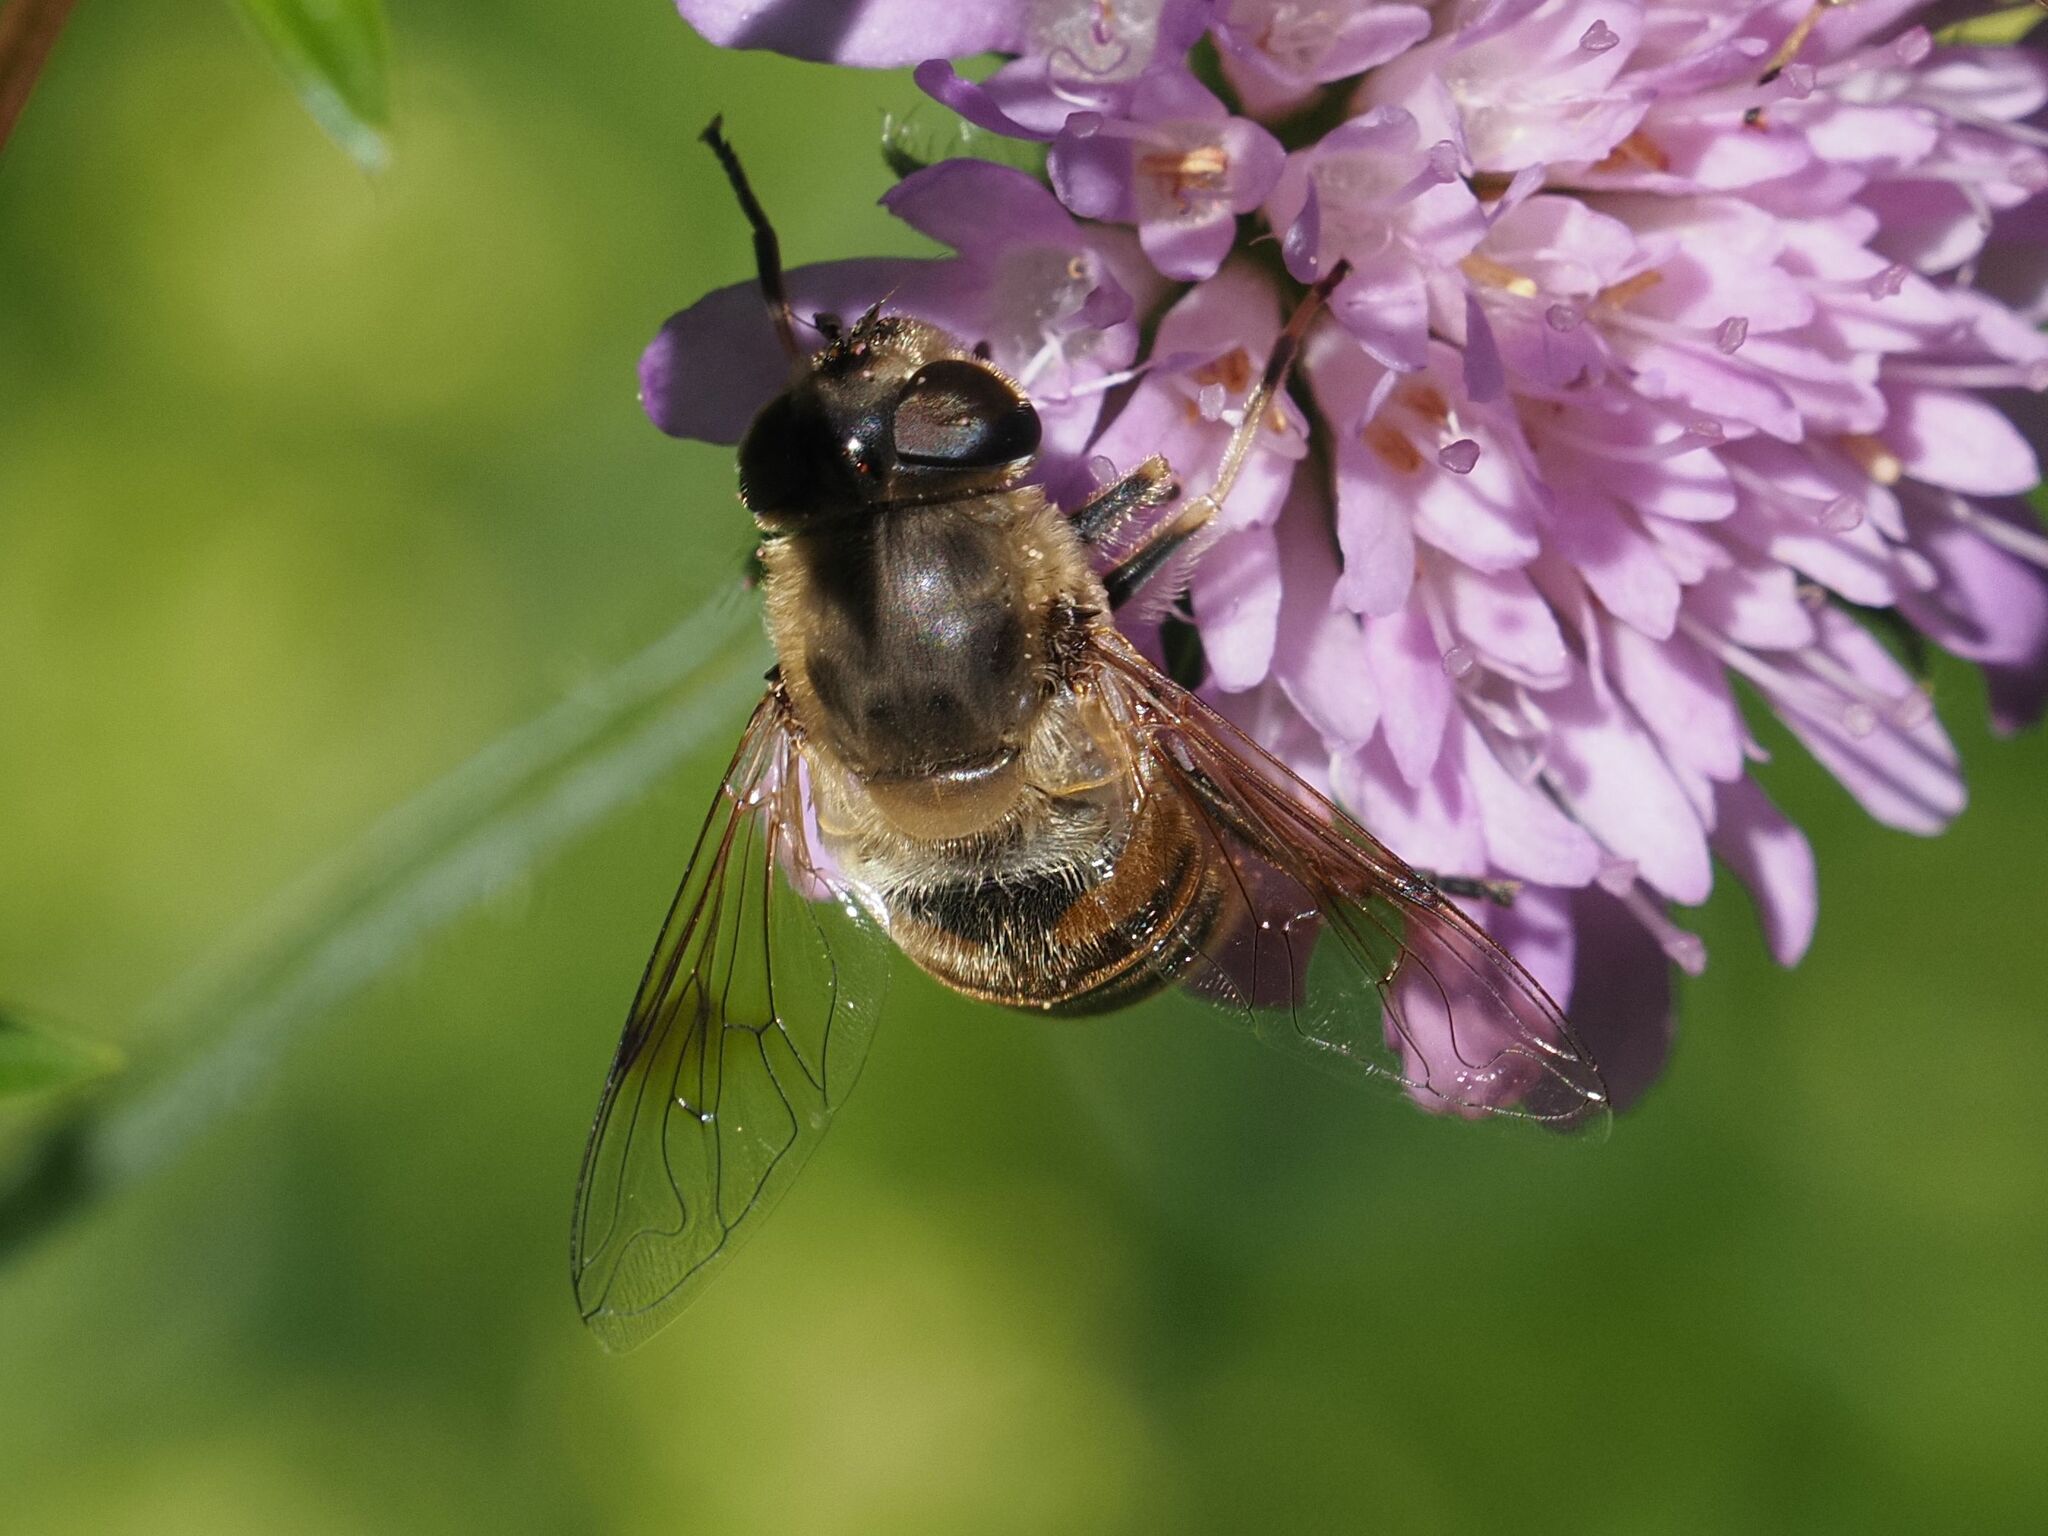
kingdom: Animalia
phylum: Arthropoda
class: Insecta
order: Diptera
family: Syrphidae
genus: Eristalis
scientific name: Eristalis tenax
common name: Drone fly
